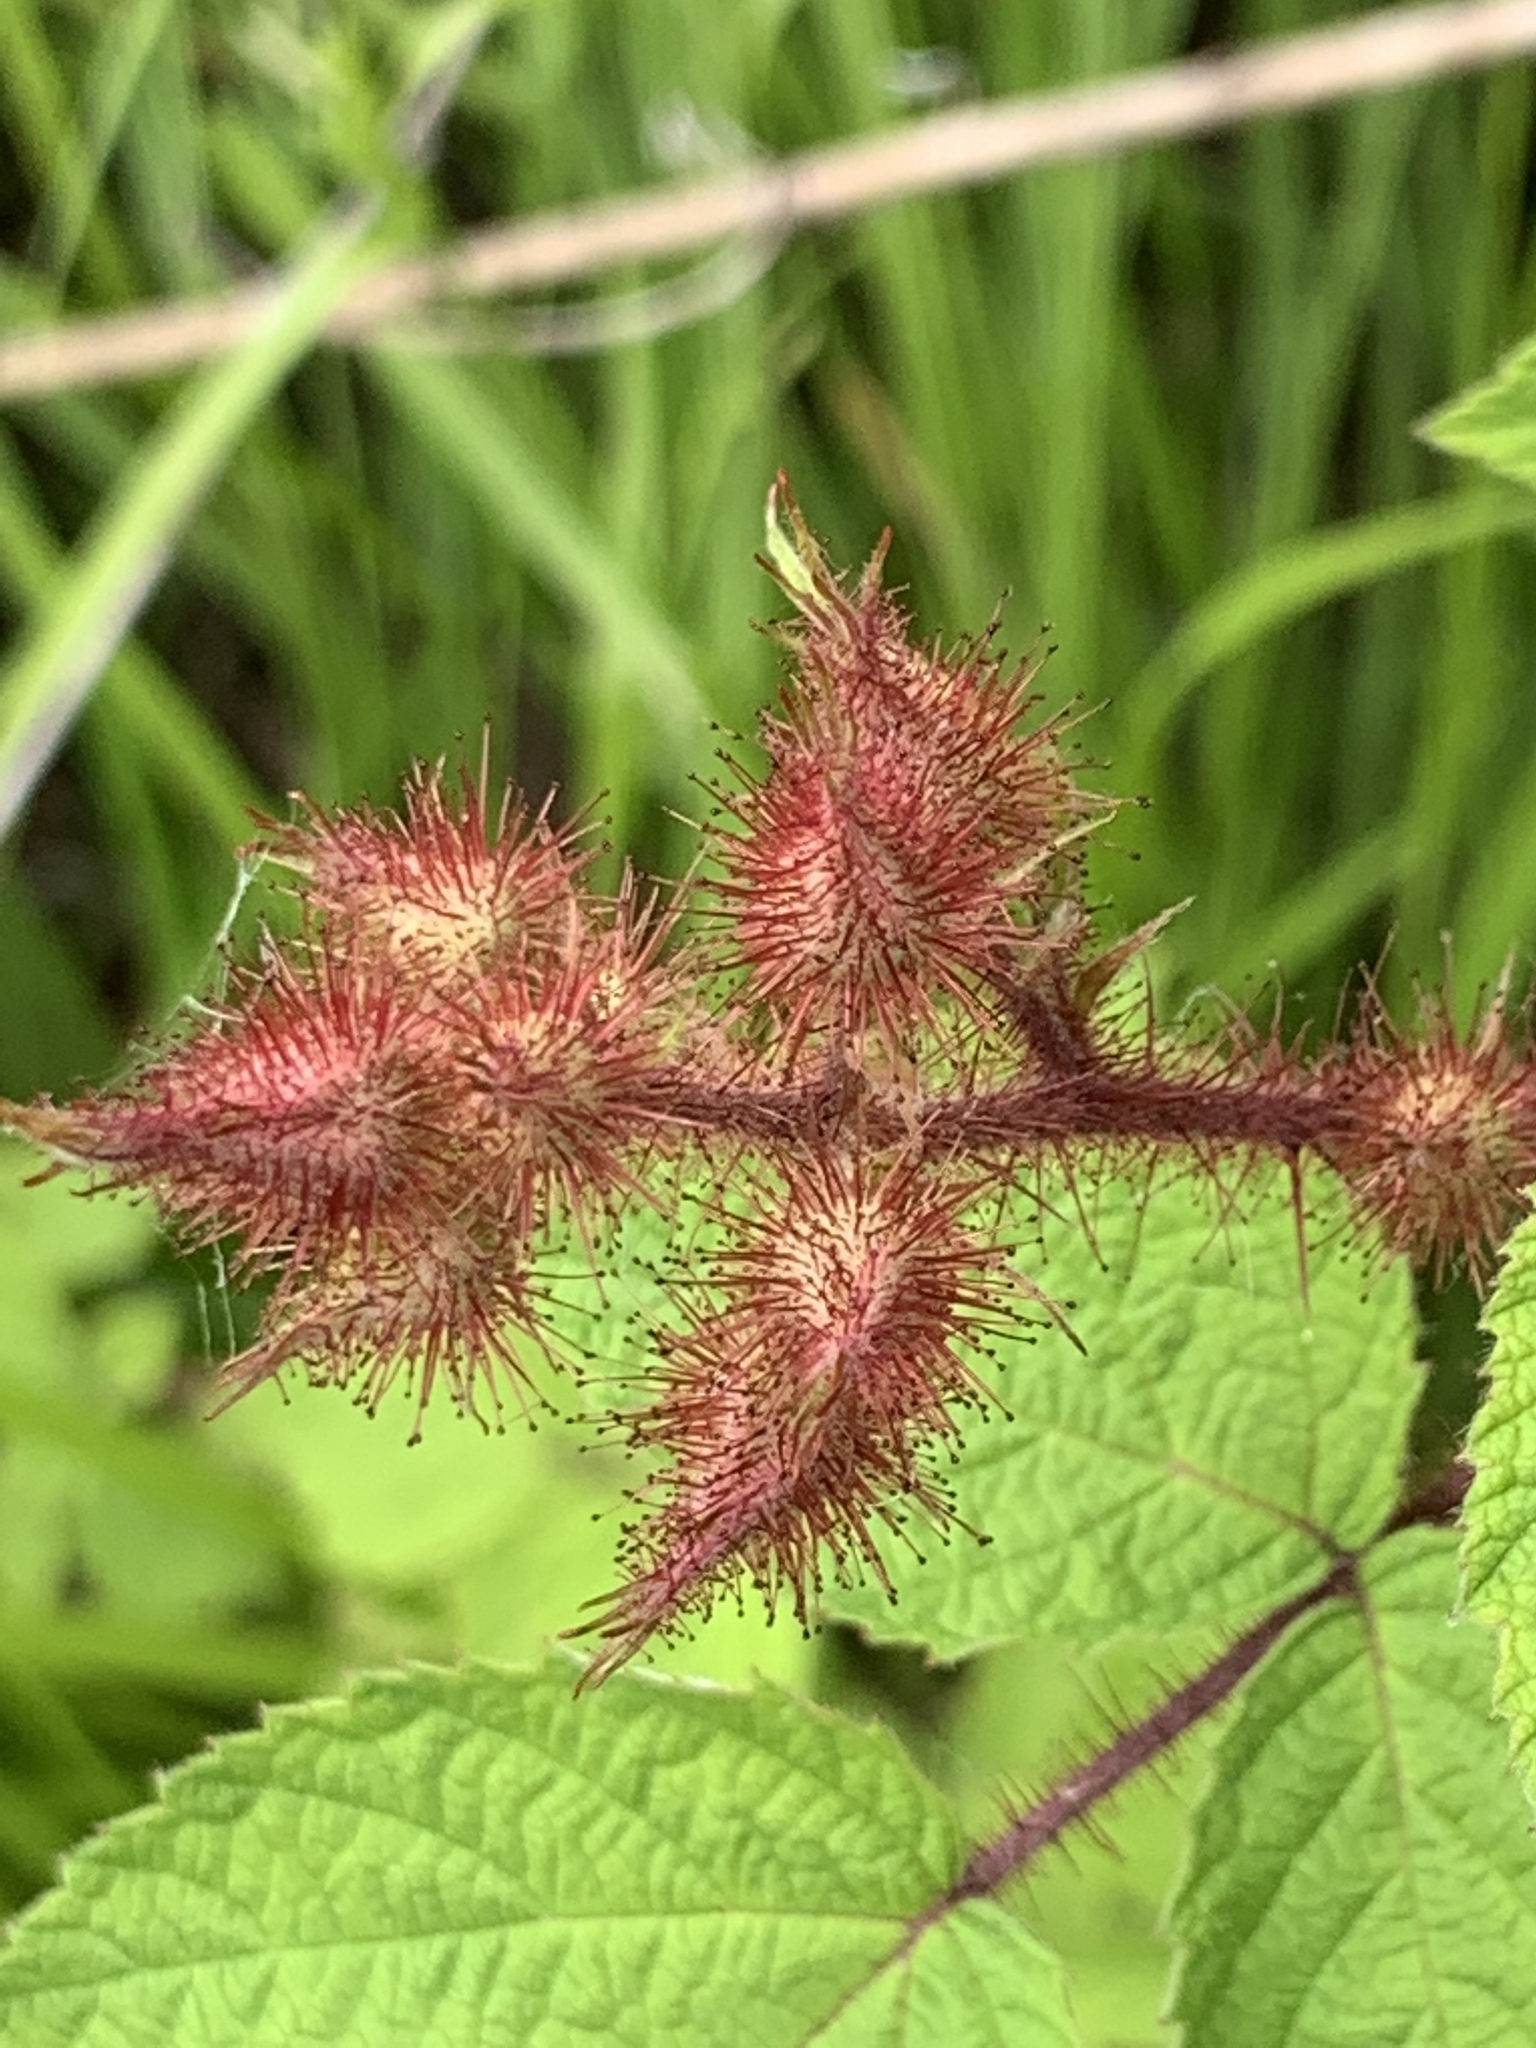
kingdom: Plantae
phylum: Tracheophyta
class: Magnoliopsida
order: Rosales
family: Rosaceae
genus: Rubus
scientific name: Rubus phoenicolasius
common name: Japanese wineberry
